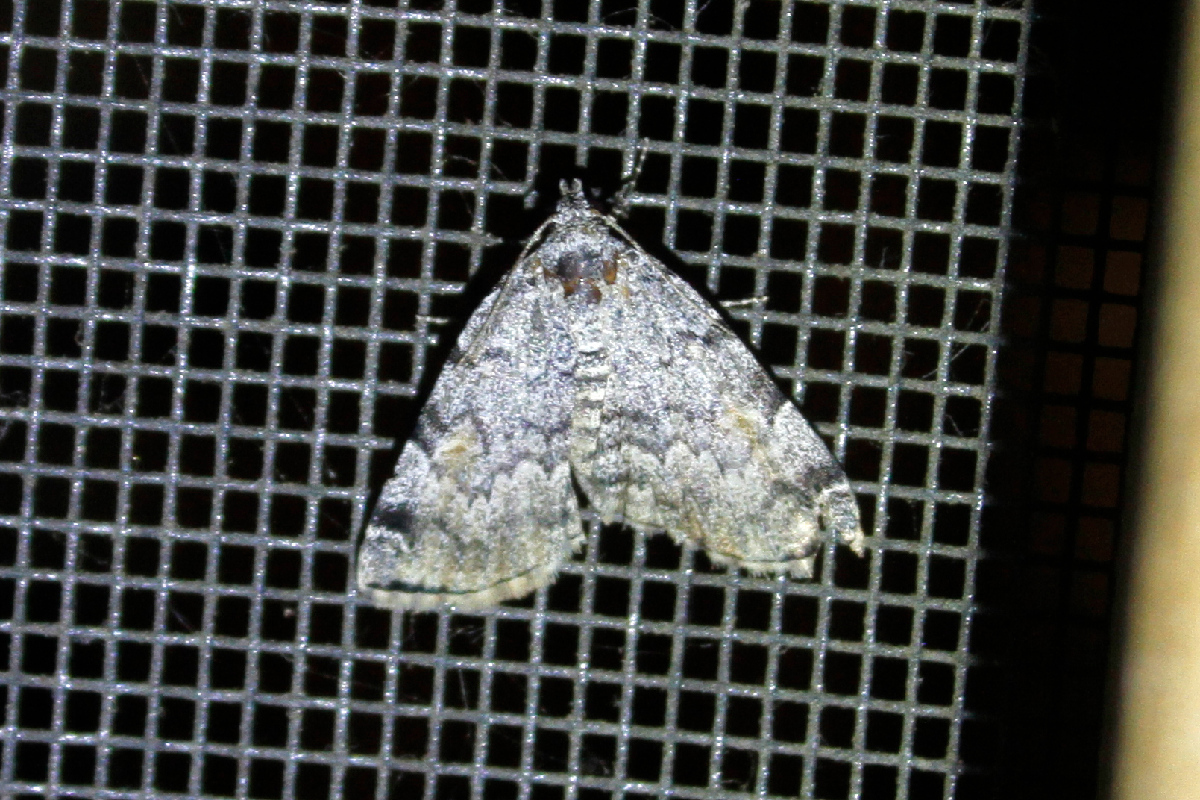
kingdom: Animalia
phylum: Arthropoda
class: Insecta
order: Lepidoptera
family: Erebidae
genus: Idia
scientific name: Idia americalis
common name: American idia moth
